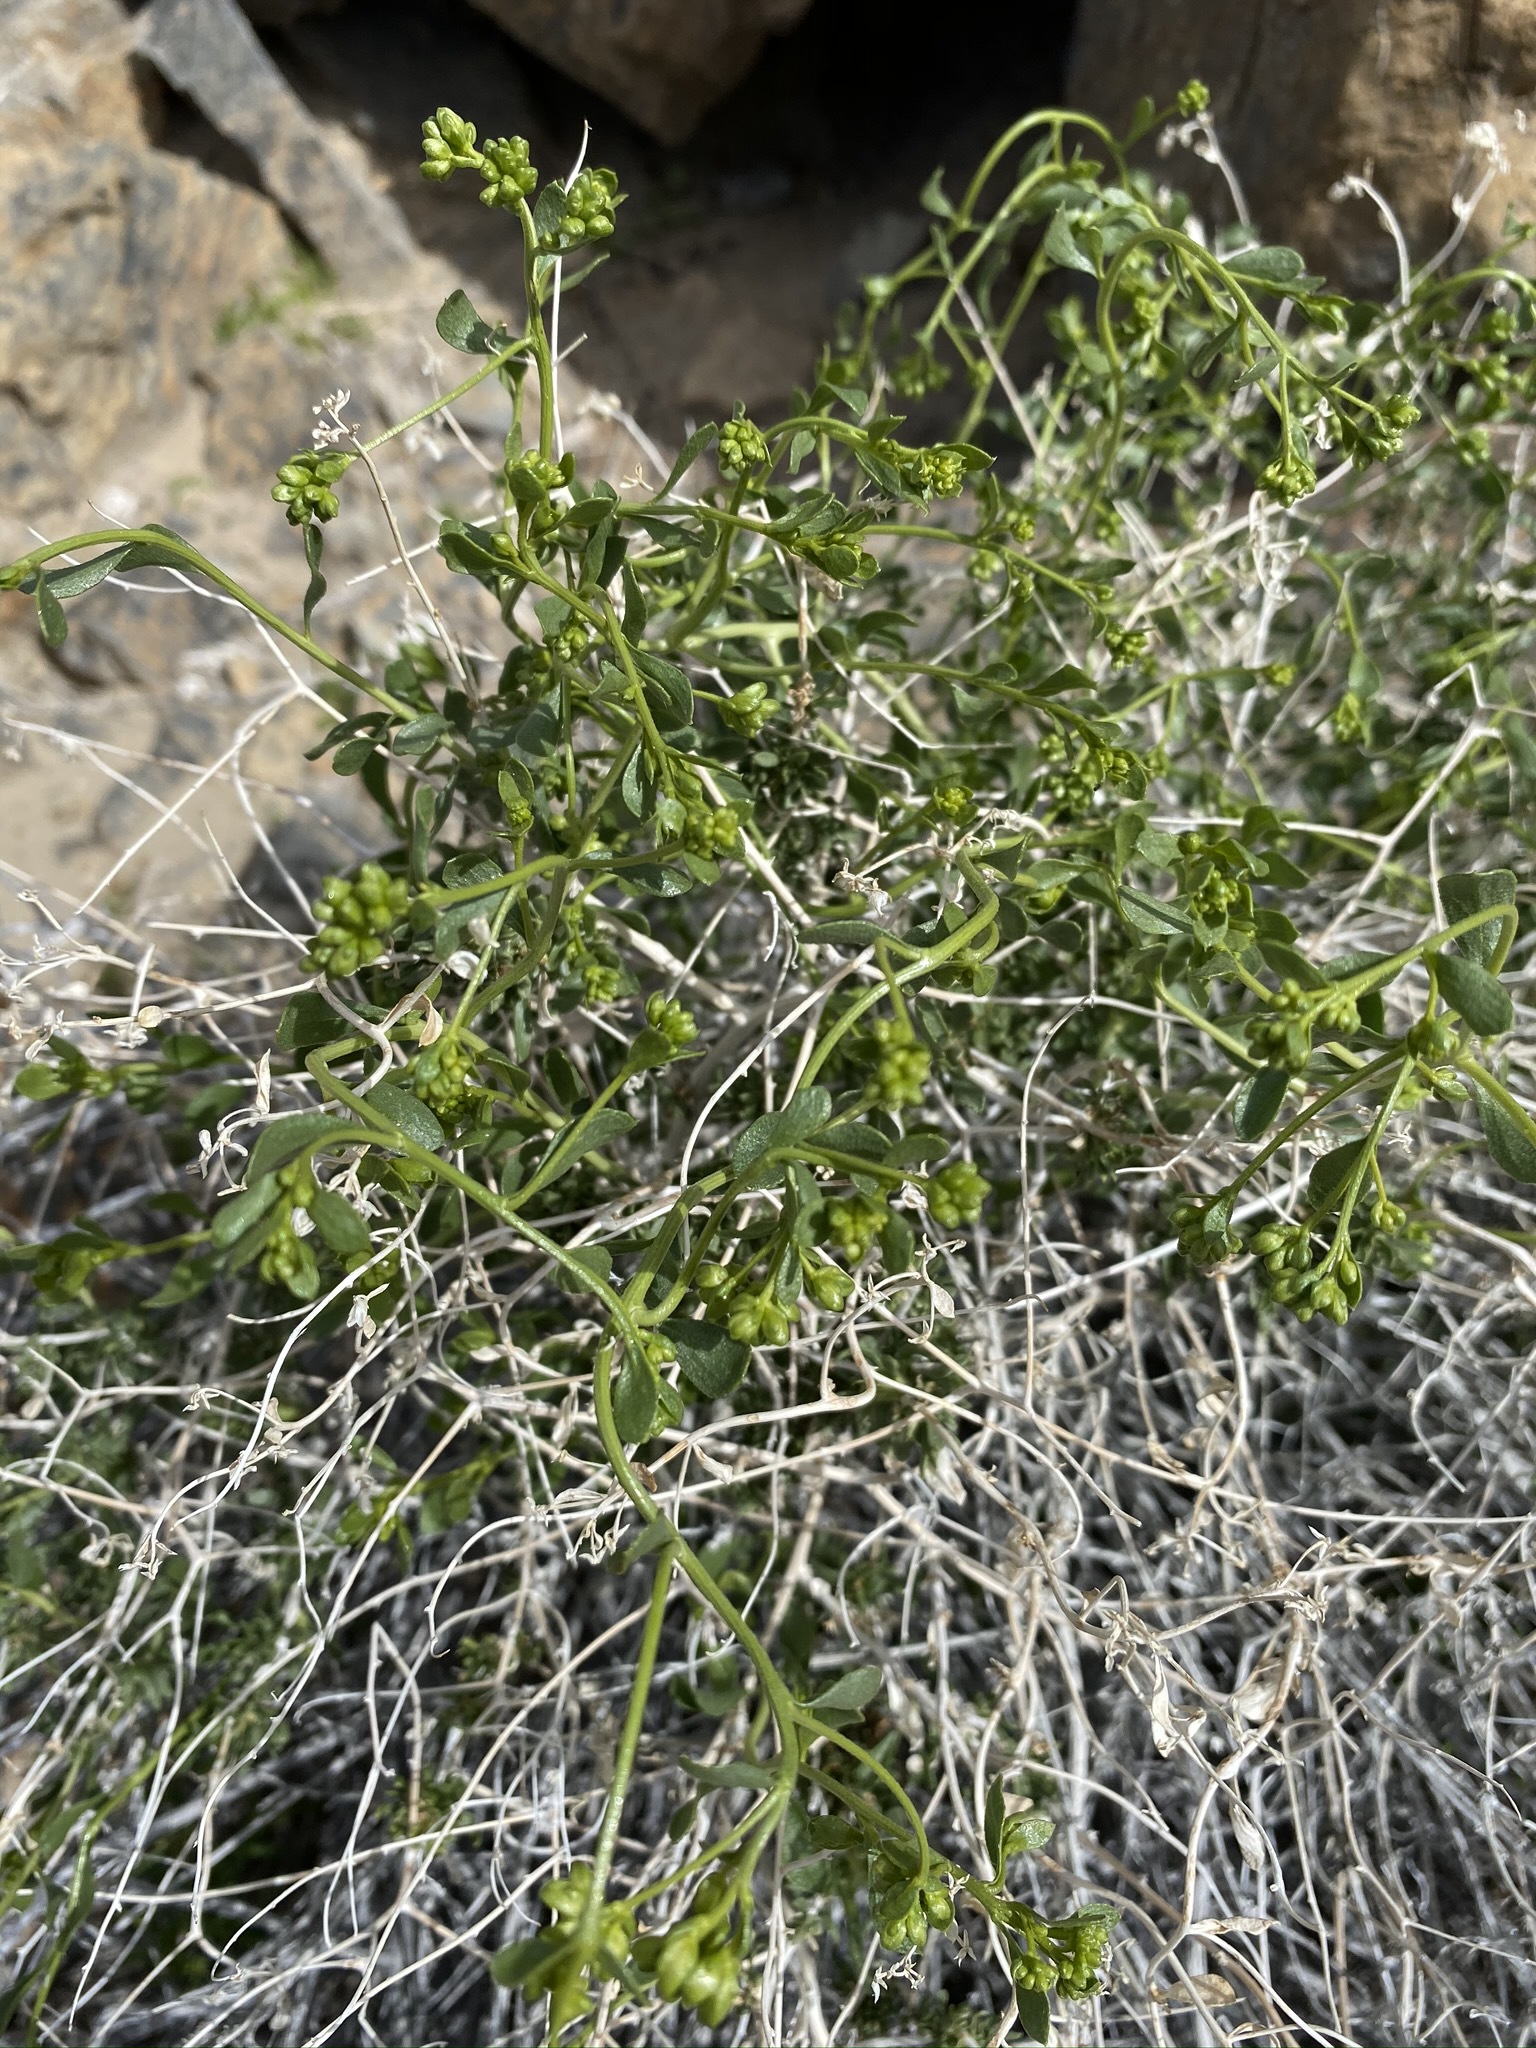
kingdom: Plantae
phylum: Tracheophyta
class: Magnoliopsida
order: Asterales
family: Asteraceae
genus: Amphipappus
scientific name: Amphipappus fremontii
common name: Fremont's chaffbush
